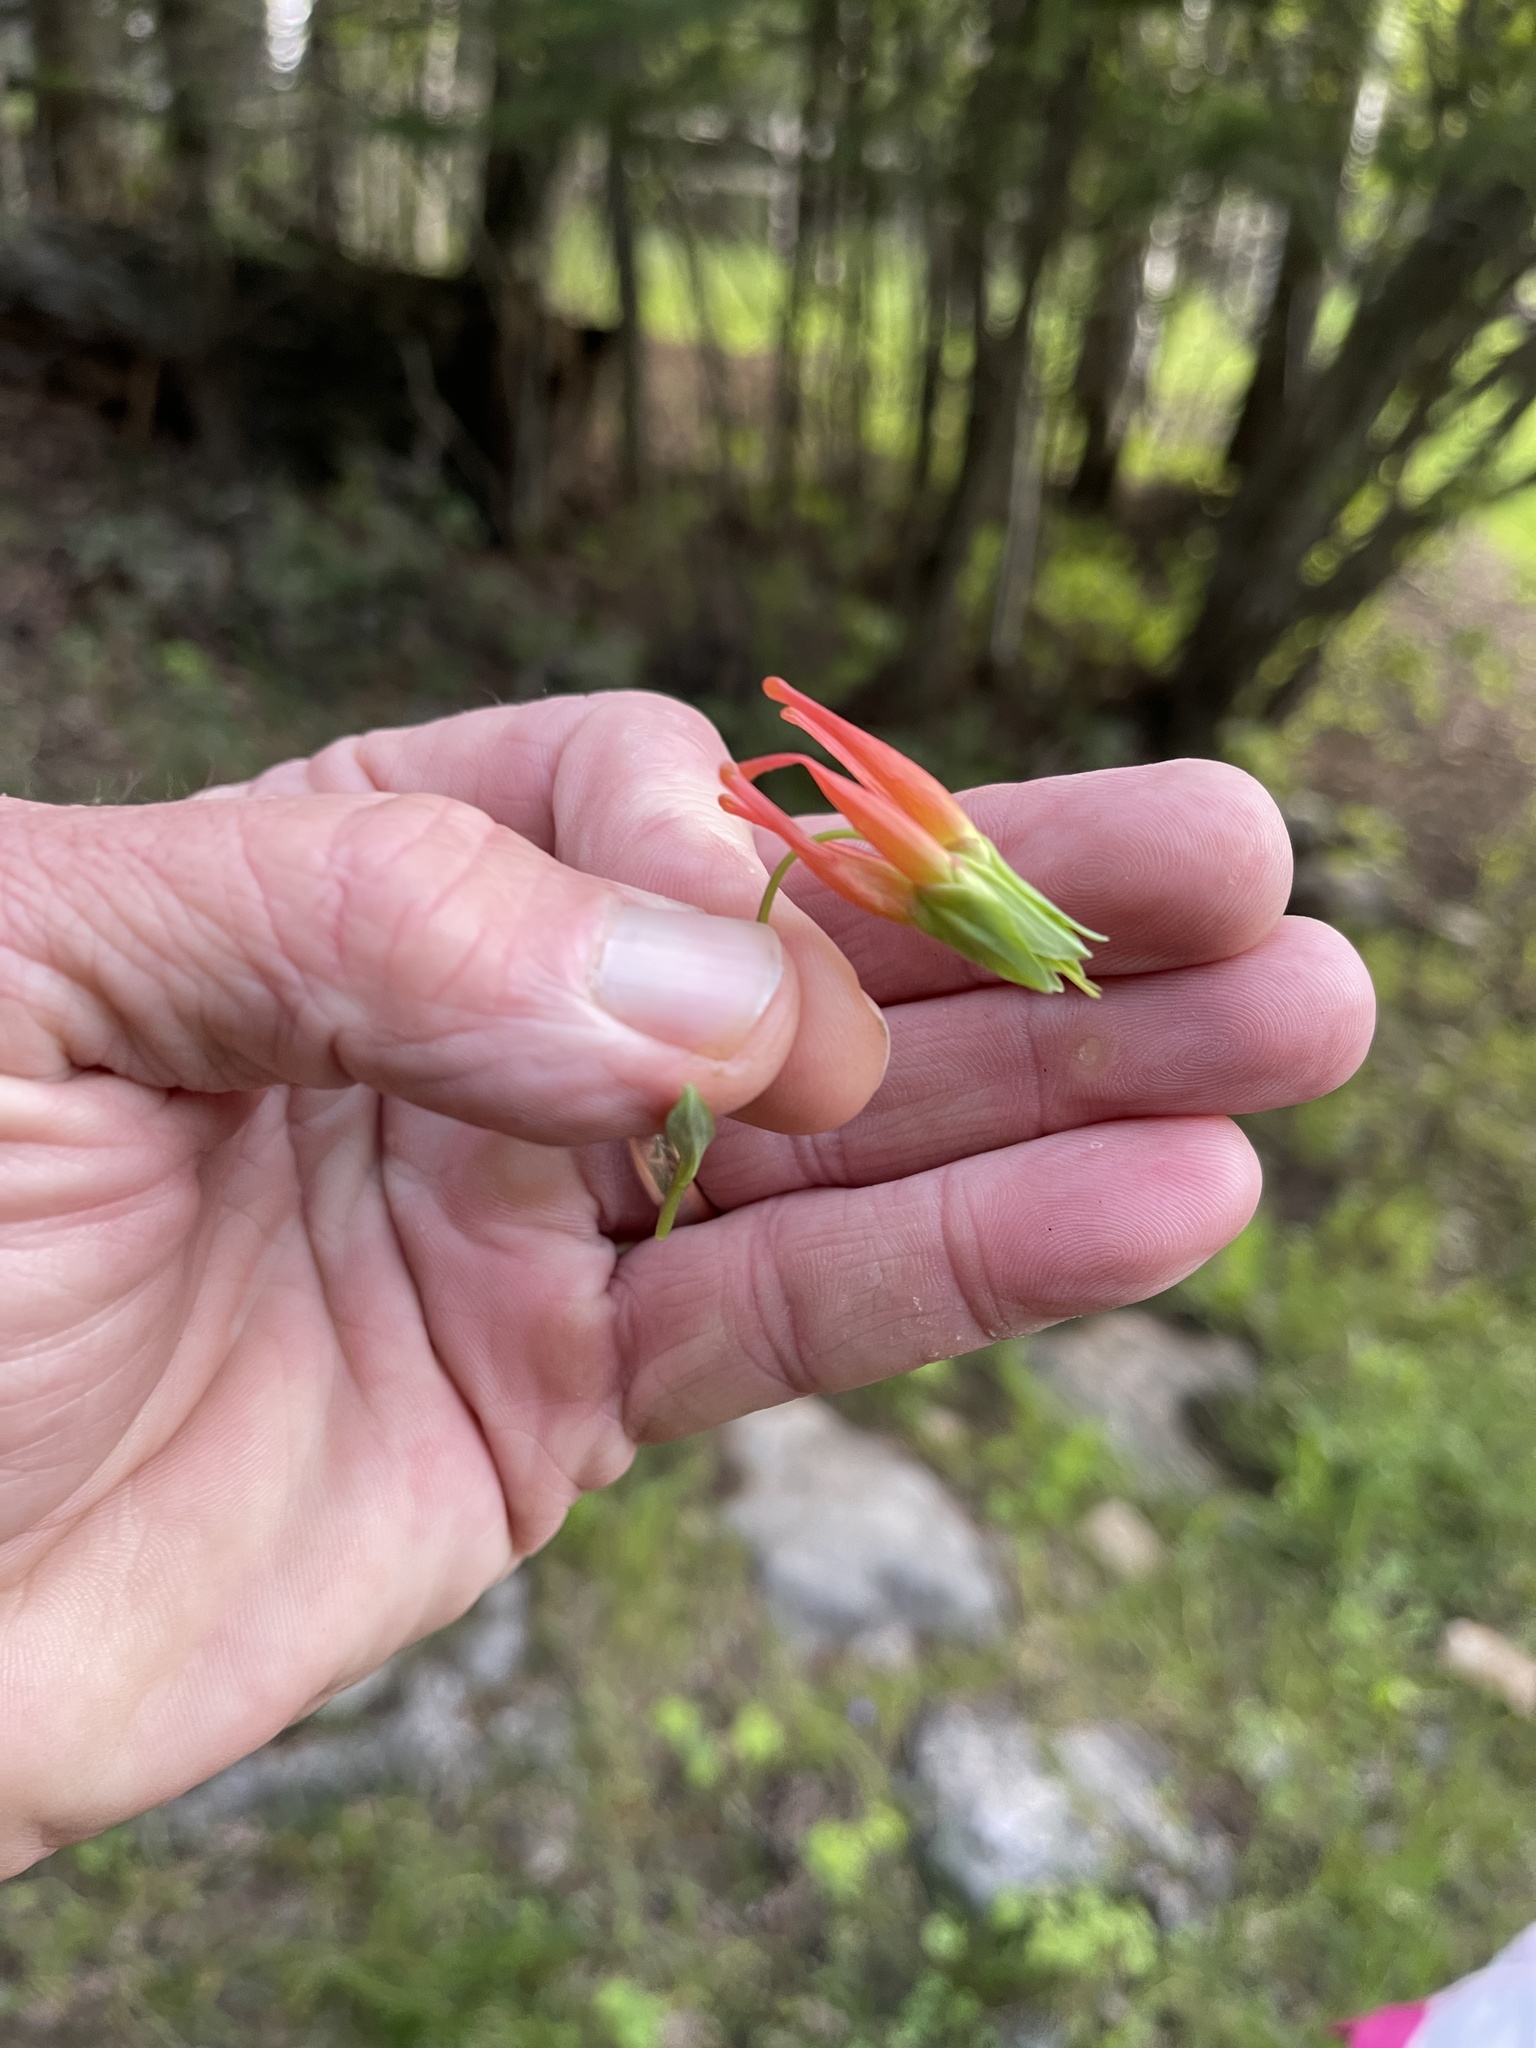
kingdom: Plantae
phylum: Tracheophyta
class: Magnoliopsida
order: Ranunculales
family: Ranunculaceae
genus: Aquilegia
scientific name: Aquilegia elegantula
